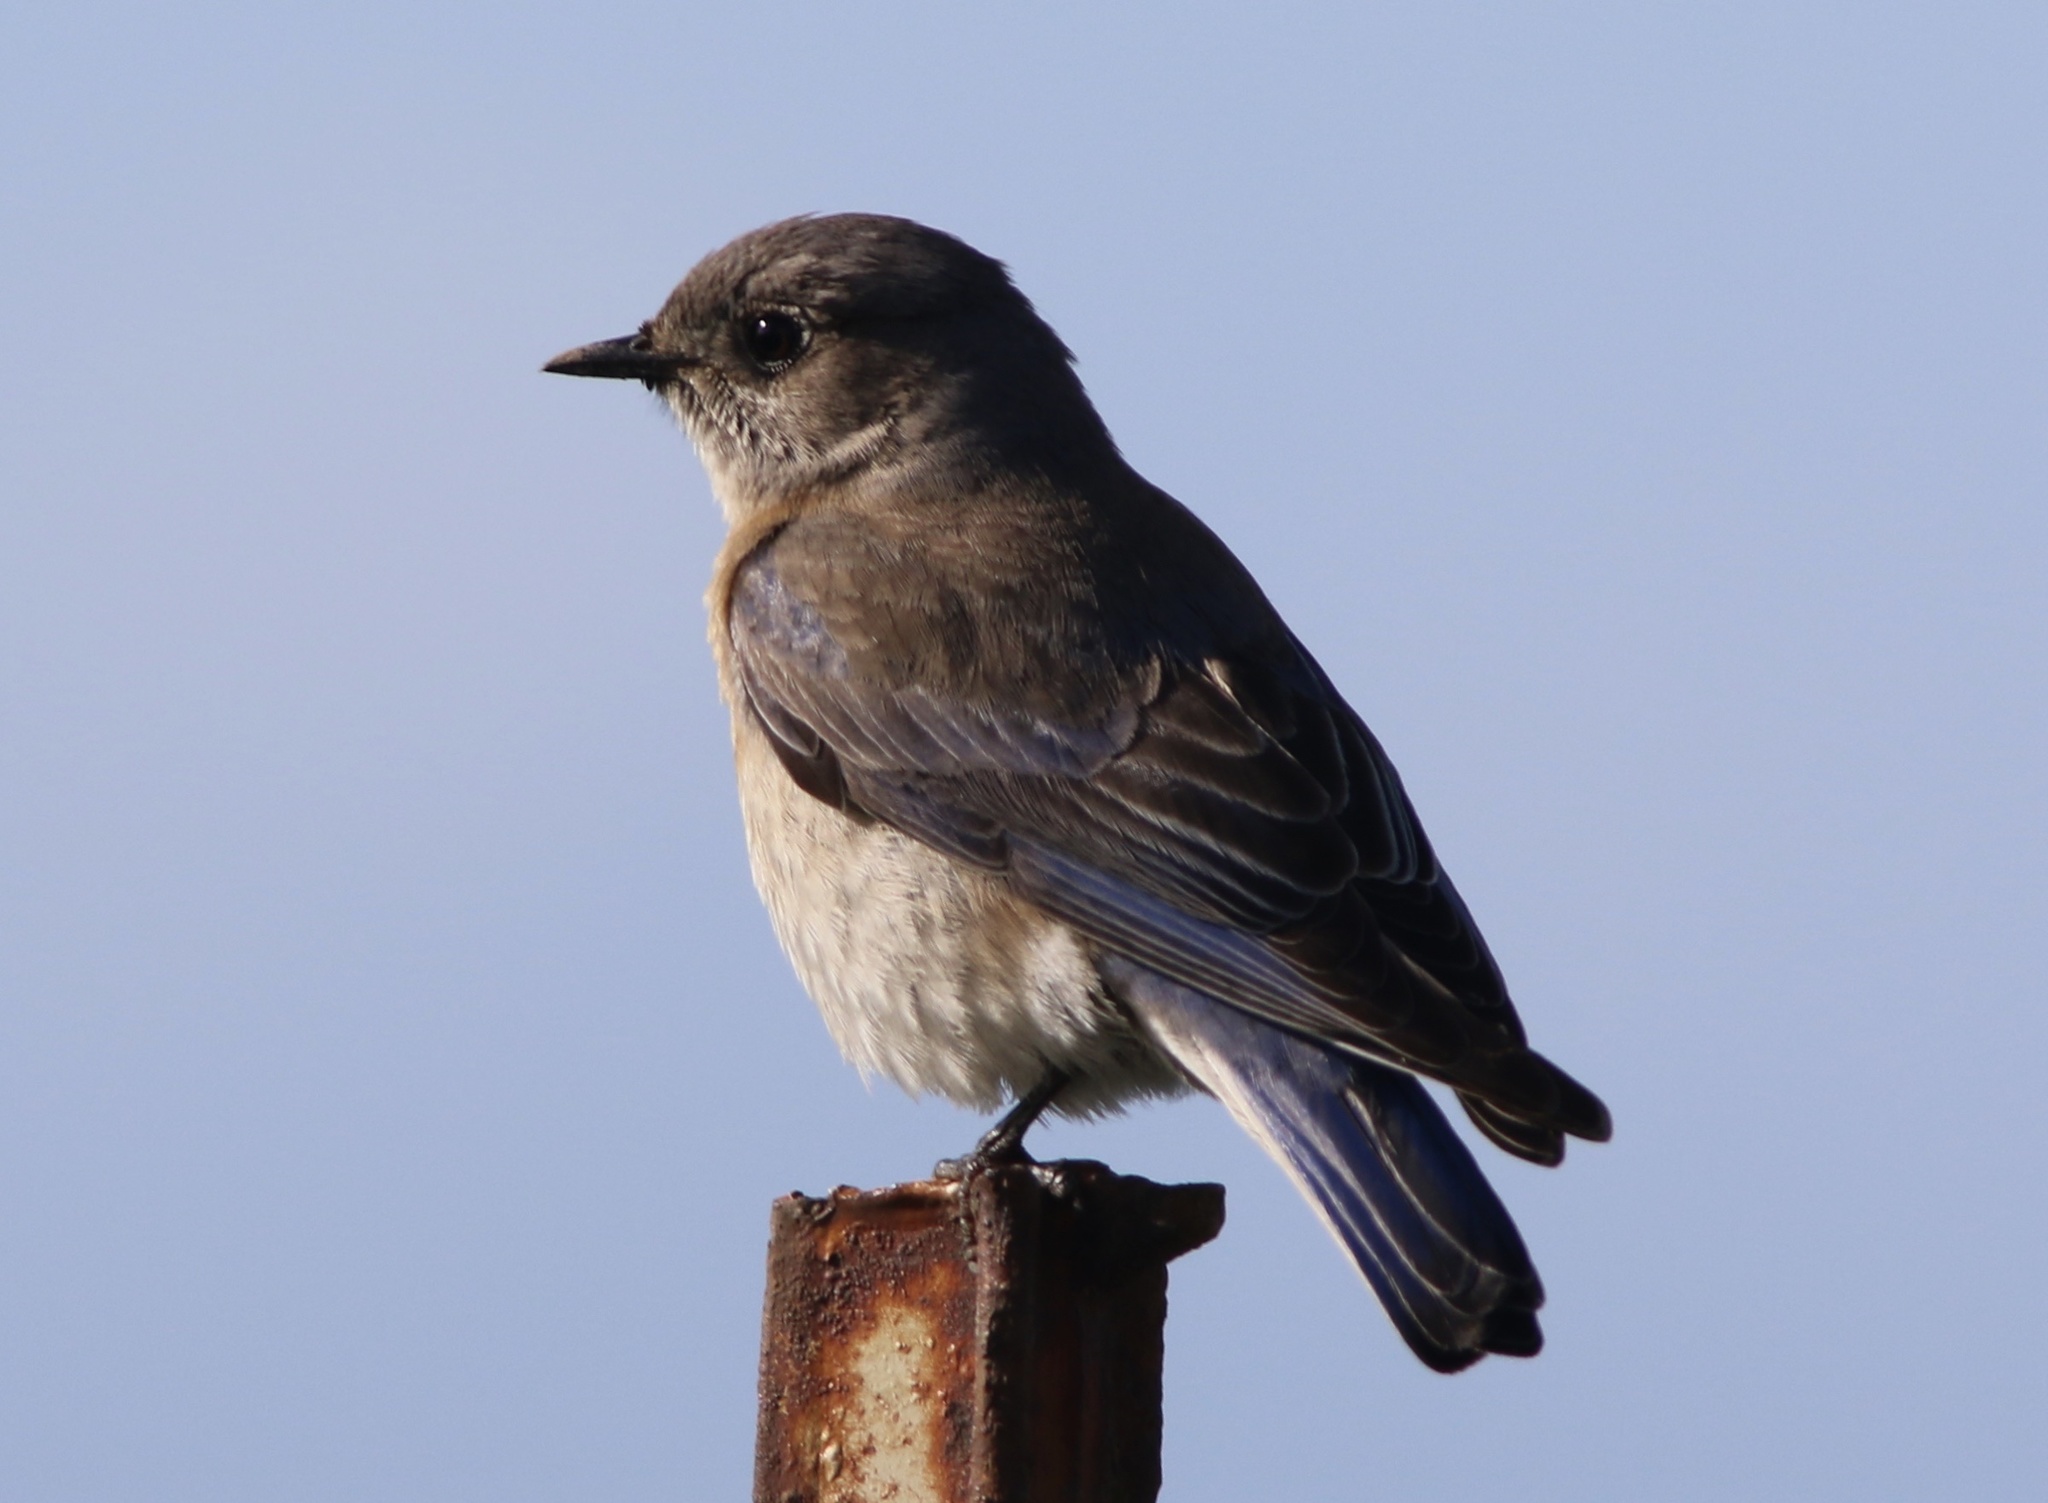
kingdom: Animalia
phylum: Chordata
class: Aves
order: Passeriformes
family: Turdidae
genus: Sialia
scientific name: Sialia mexicana
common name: Western bluebird
